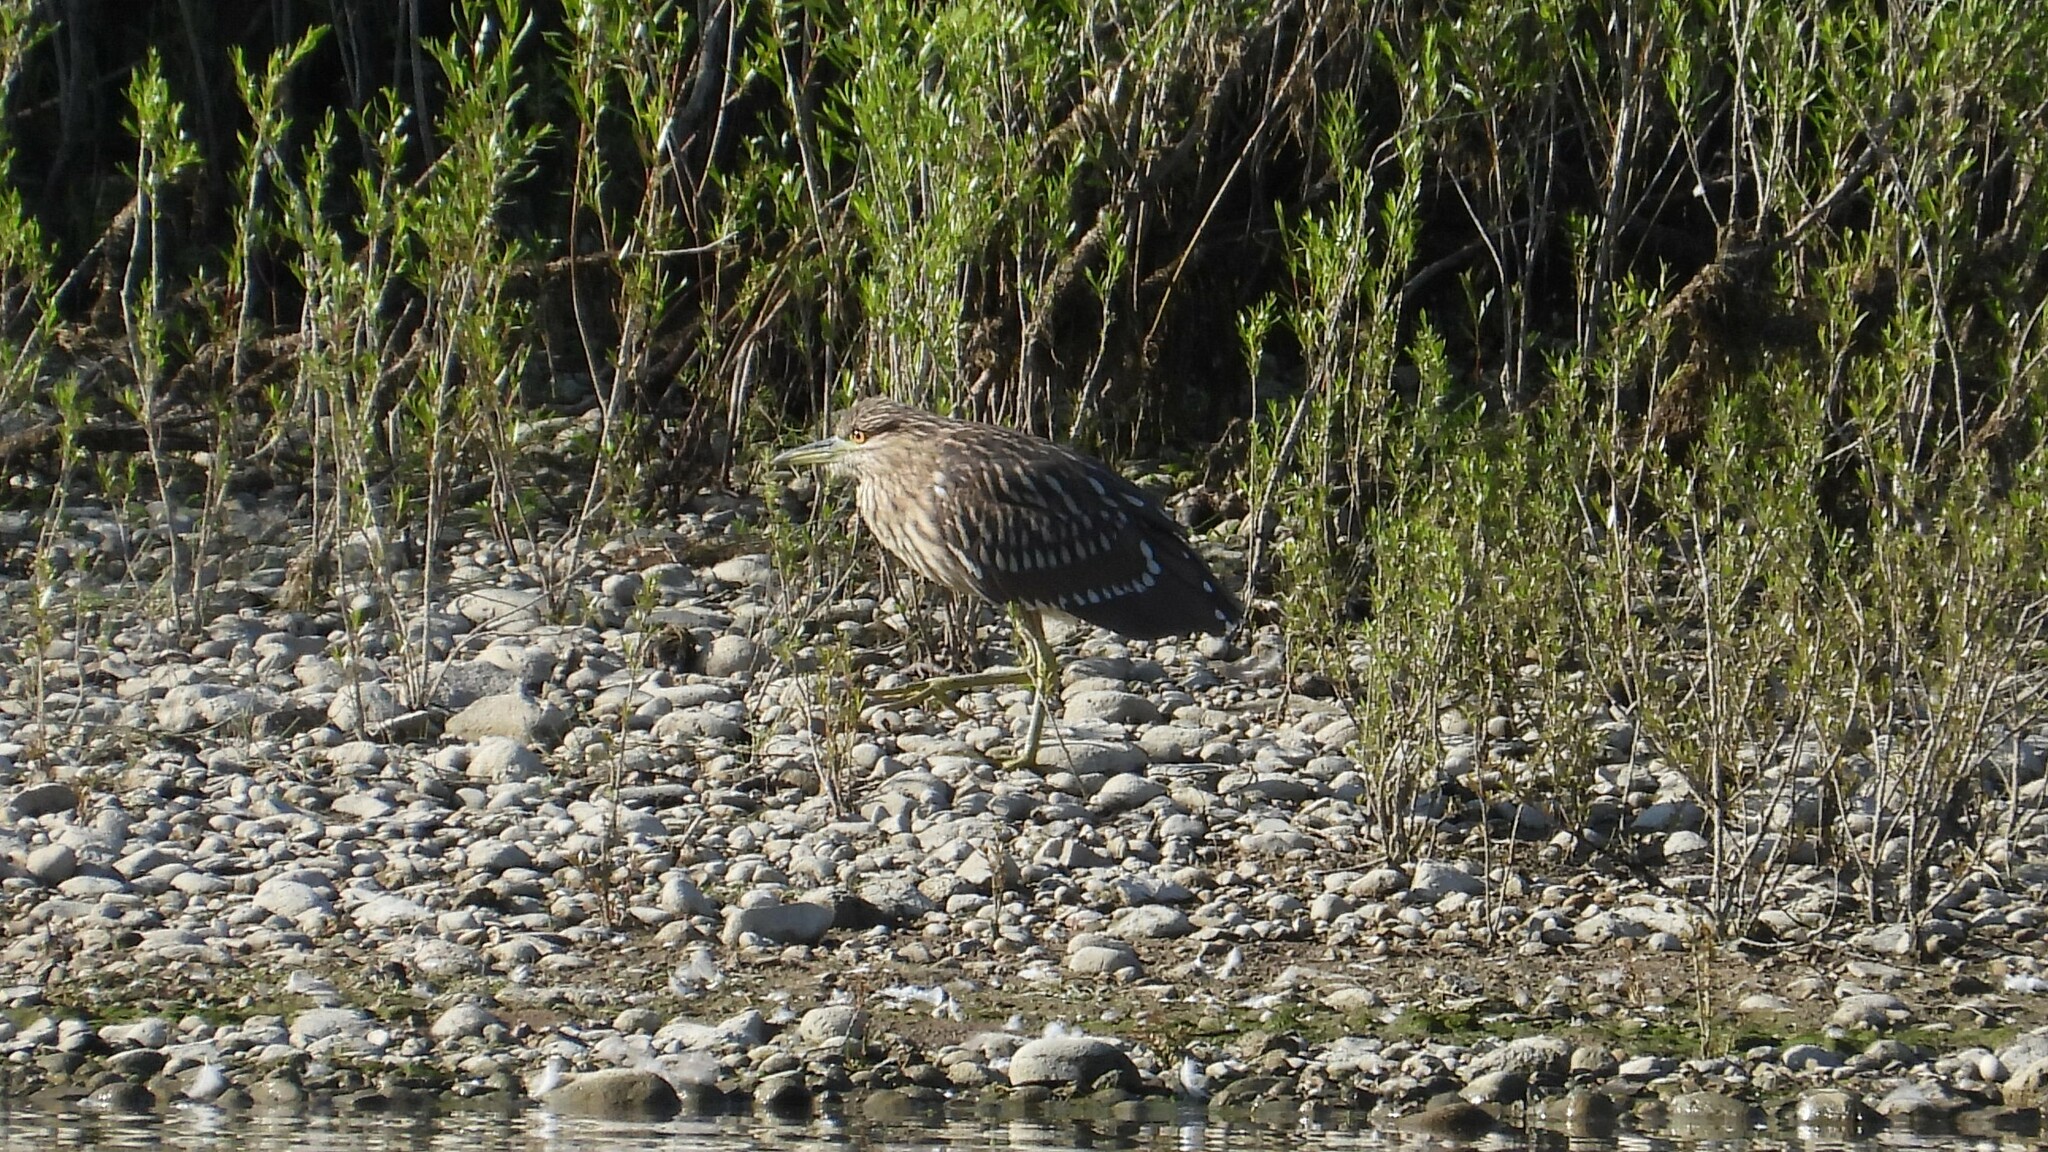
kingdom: Animalia
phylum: Chordata
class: Aves
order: Pelecaniformes
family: Ardeidae
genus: Nycticorax
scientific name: Nycticorax nycticorax
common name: Black-crowned night heron
